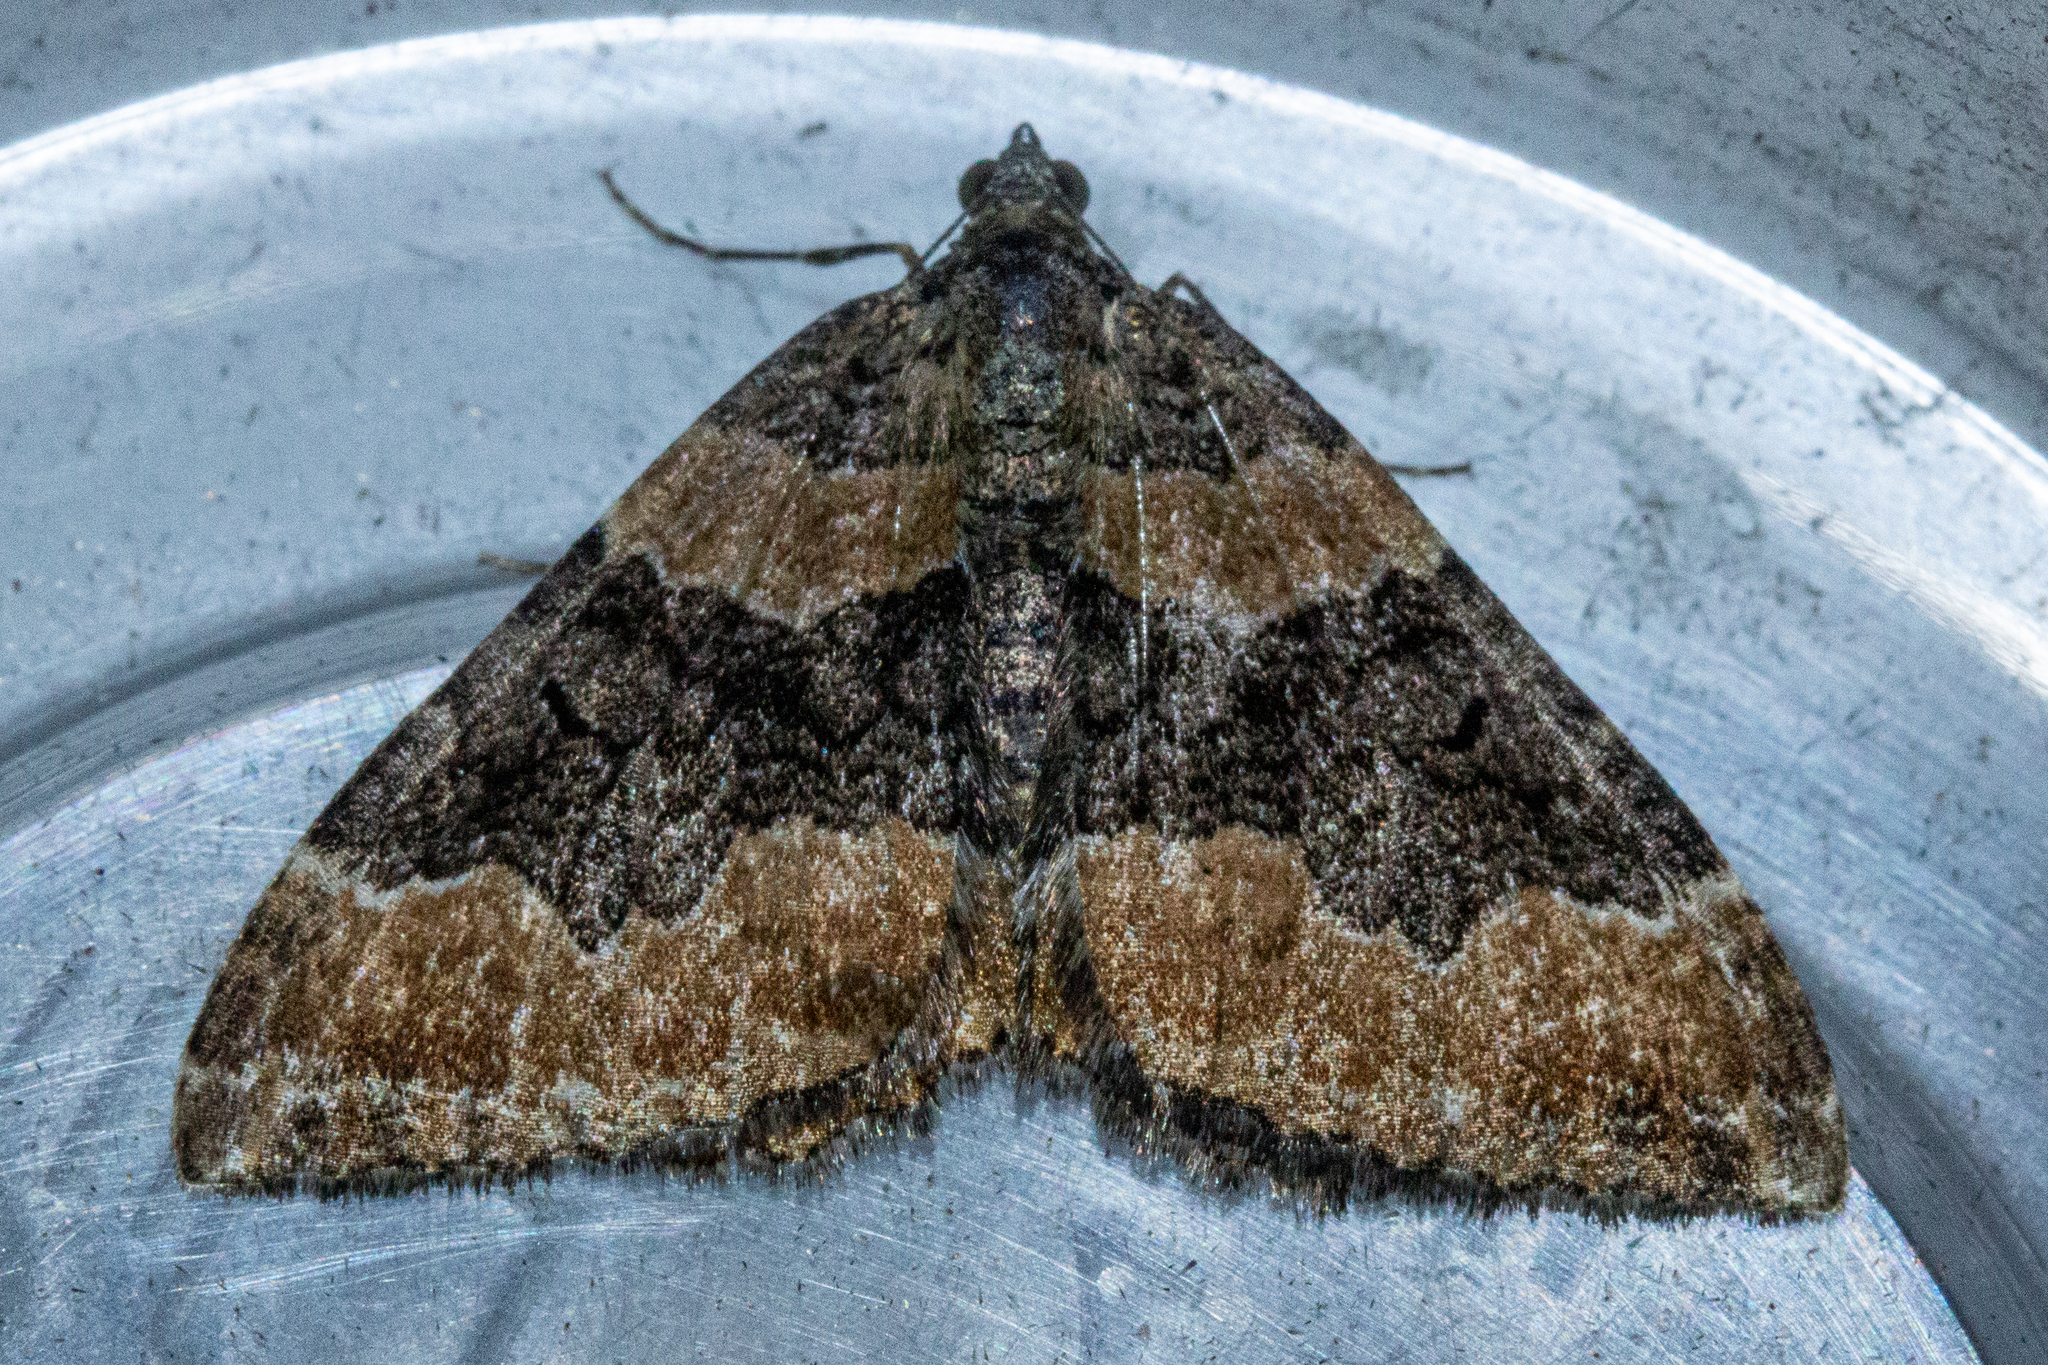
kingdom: Animalia
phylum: Arthropoda
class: Insecta
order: Lepidoptera
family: Geometridae
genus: Hydriomena
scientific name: Hydriomena hemizona
